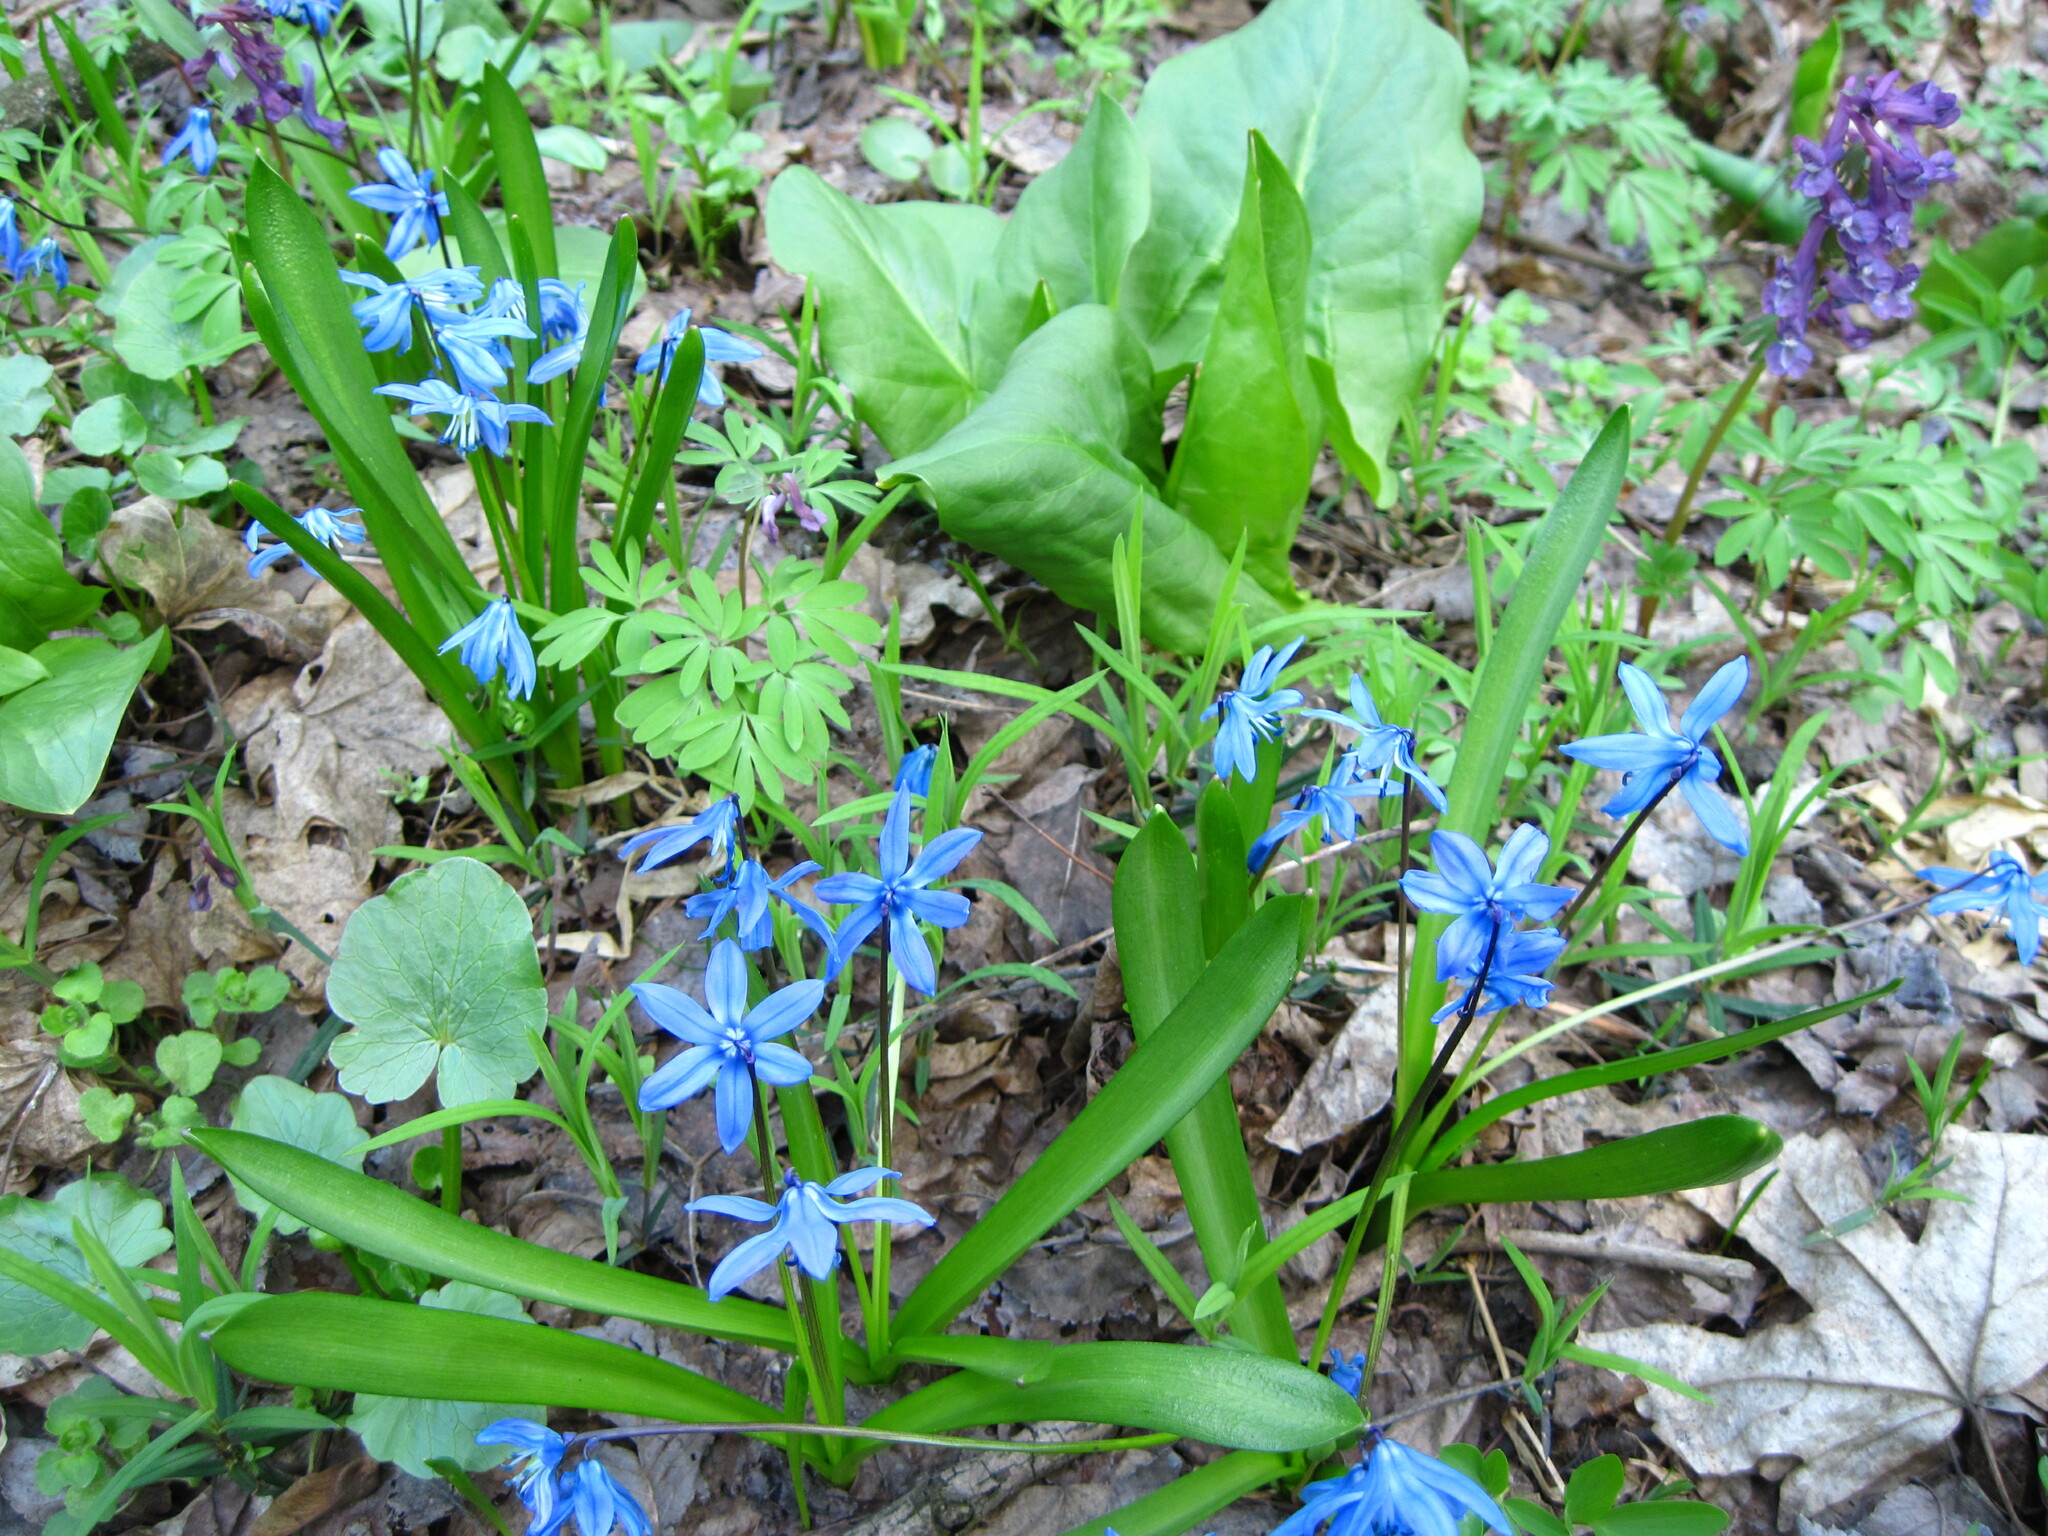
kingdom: Plantae
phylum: Tracheophyta
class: Liliopsida
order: Asparagales
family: Asparagaceae
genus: Scilla
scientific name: Scilla siberica
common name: Siberian squill
